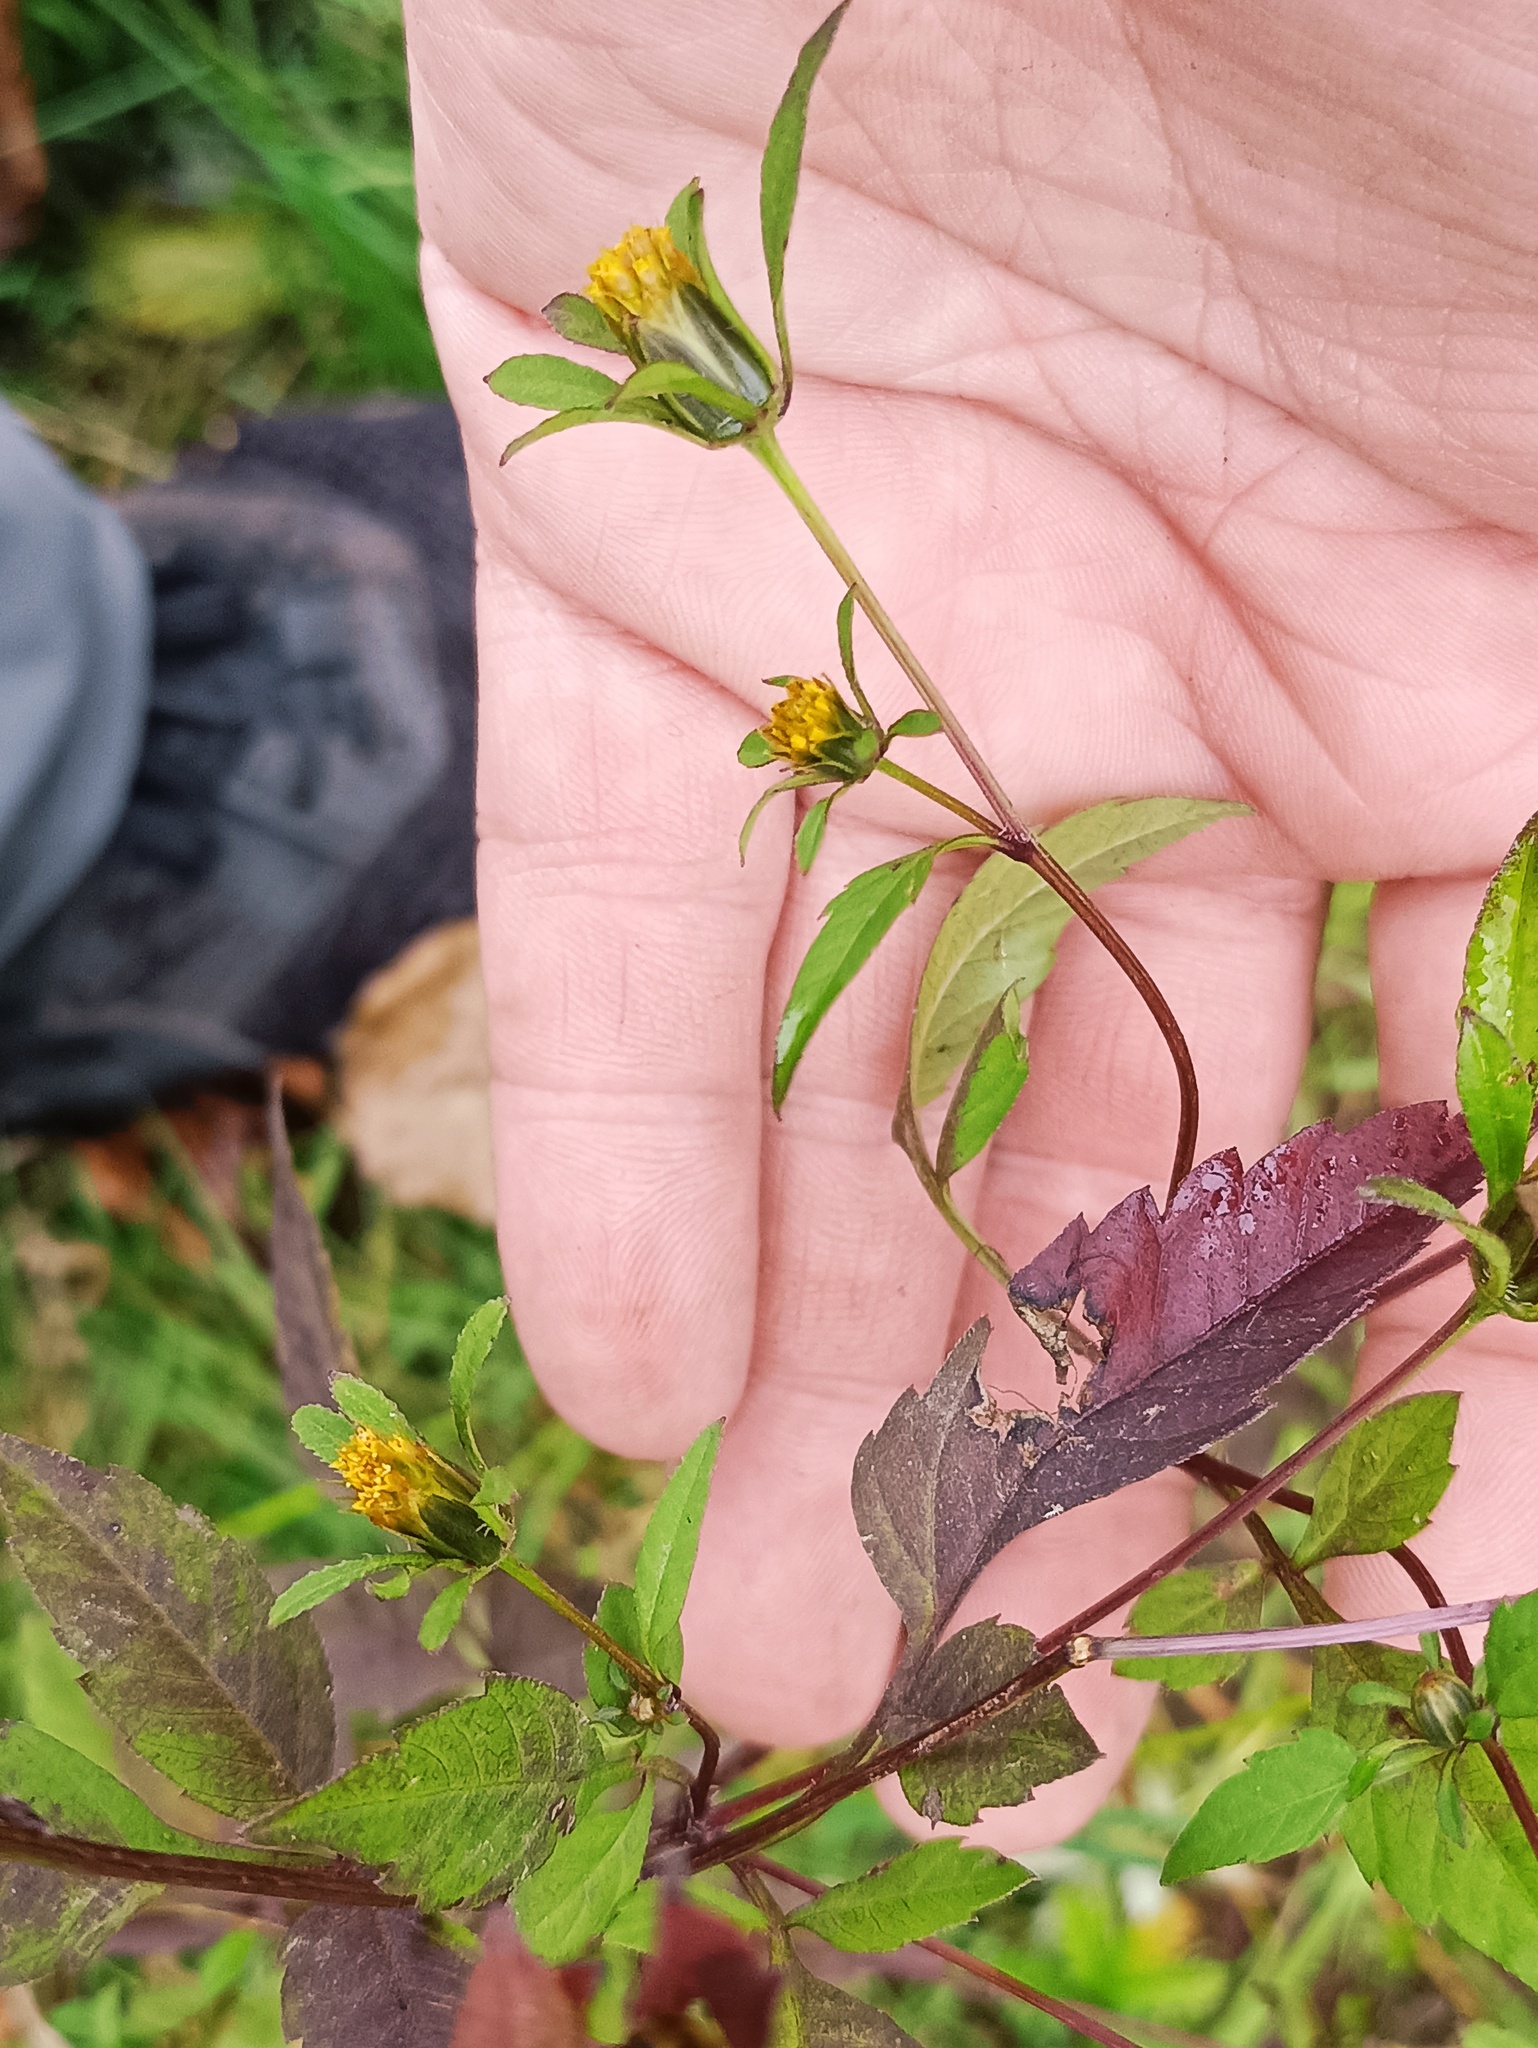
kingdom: Plantae
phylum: Tracheophyta
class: Magnoliopsida
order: Asterales
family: Asteraceae
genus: Bidens
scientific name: Bidens frondosa
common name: Beggarticks
